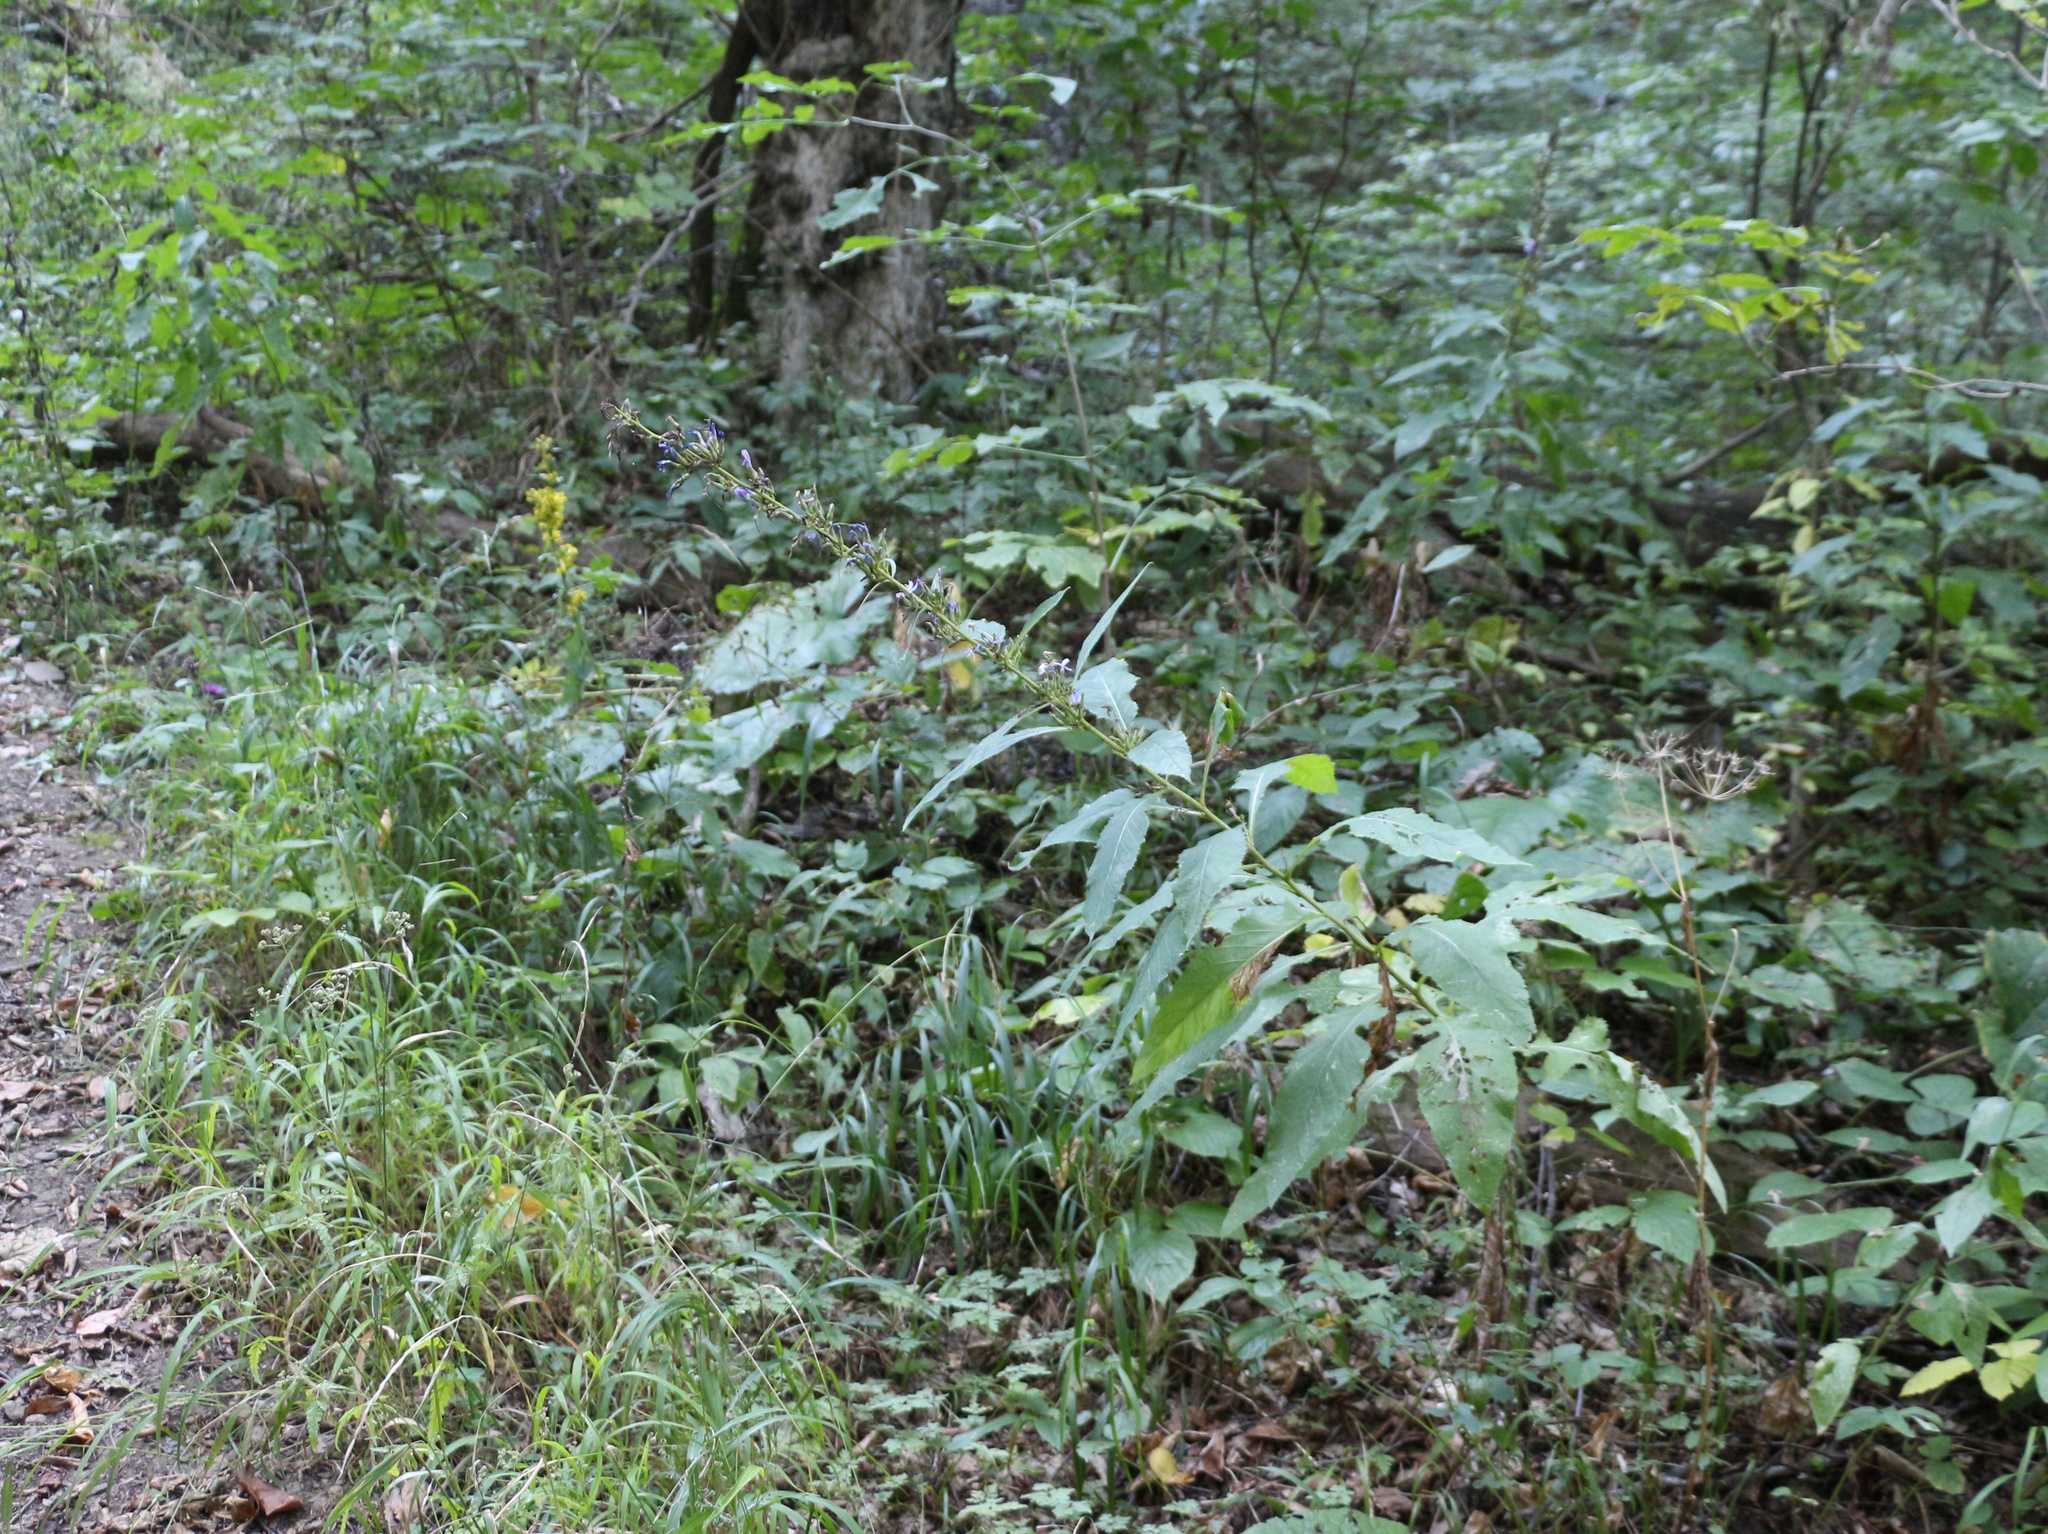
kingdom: Plantae
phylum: Tracheophyta
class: Magnoliopsida
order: Asterales
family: Asteraceae
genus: Cicerbita
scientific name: Cicerbita prenanthoides
